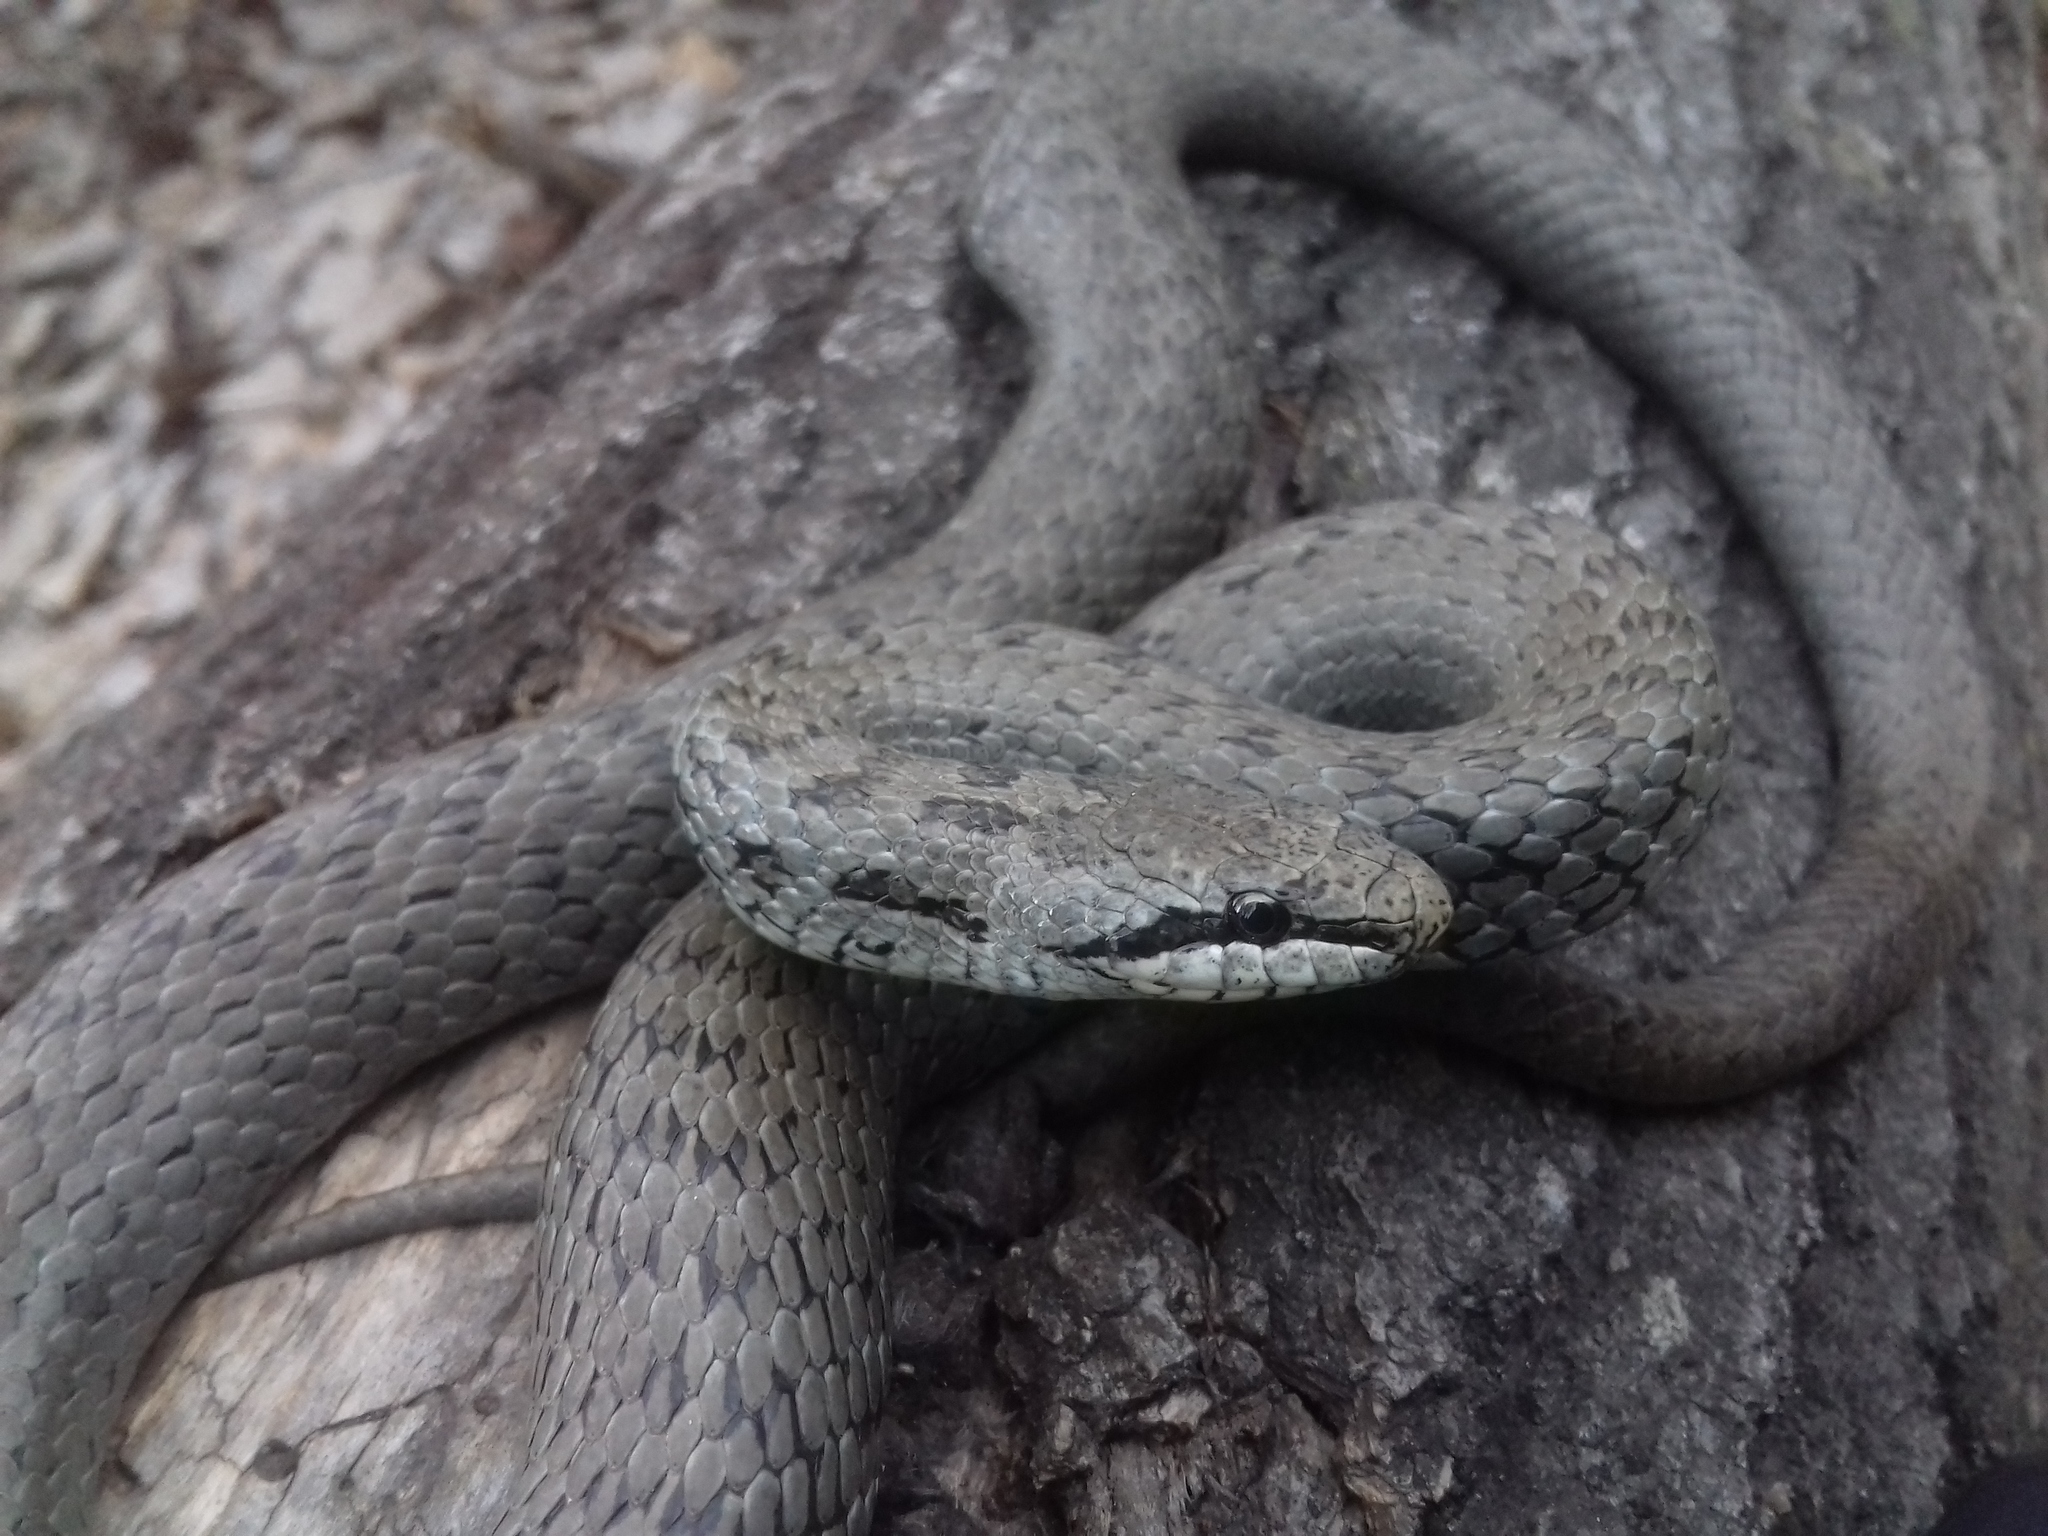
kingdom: Animalia
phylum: Chordata
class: Squamata
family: Colubridae
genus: Coronella
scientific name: Coronella austriaca
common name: Smooth snake
